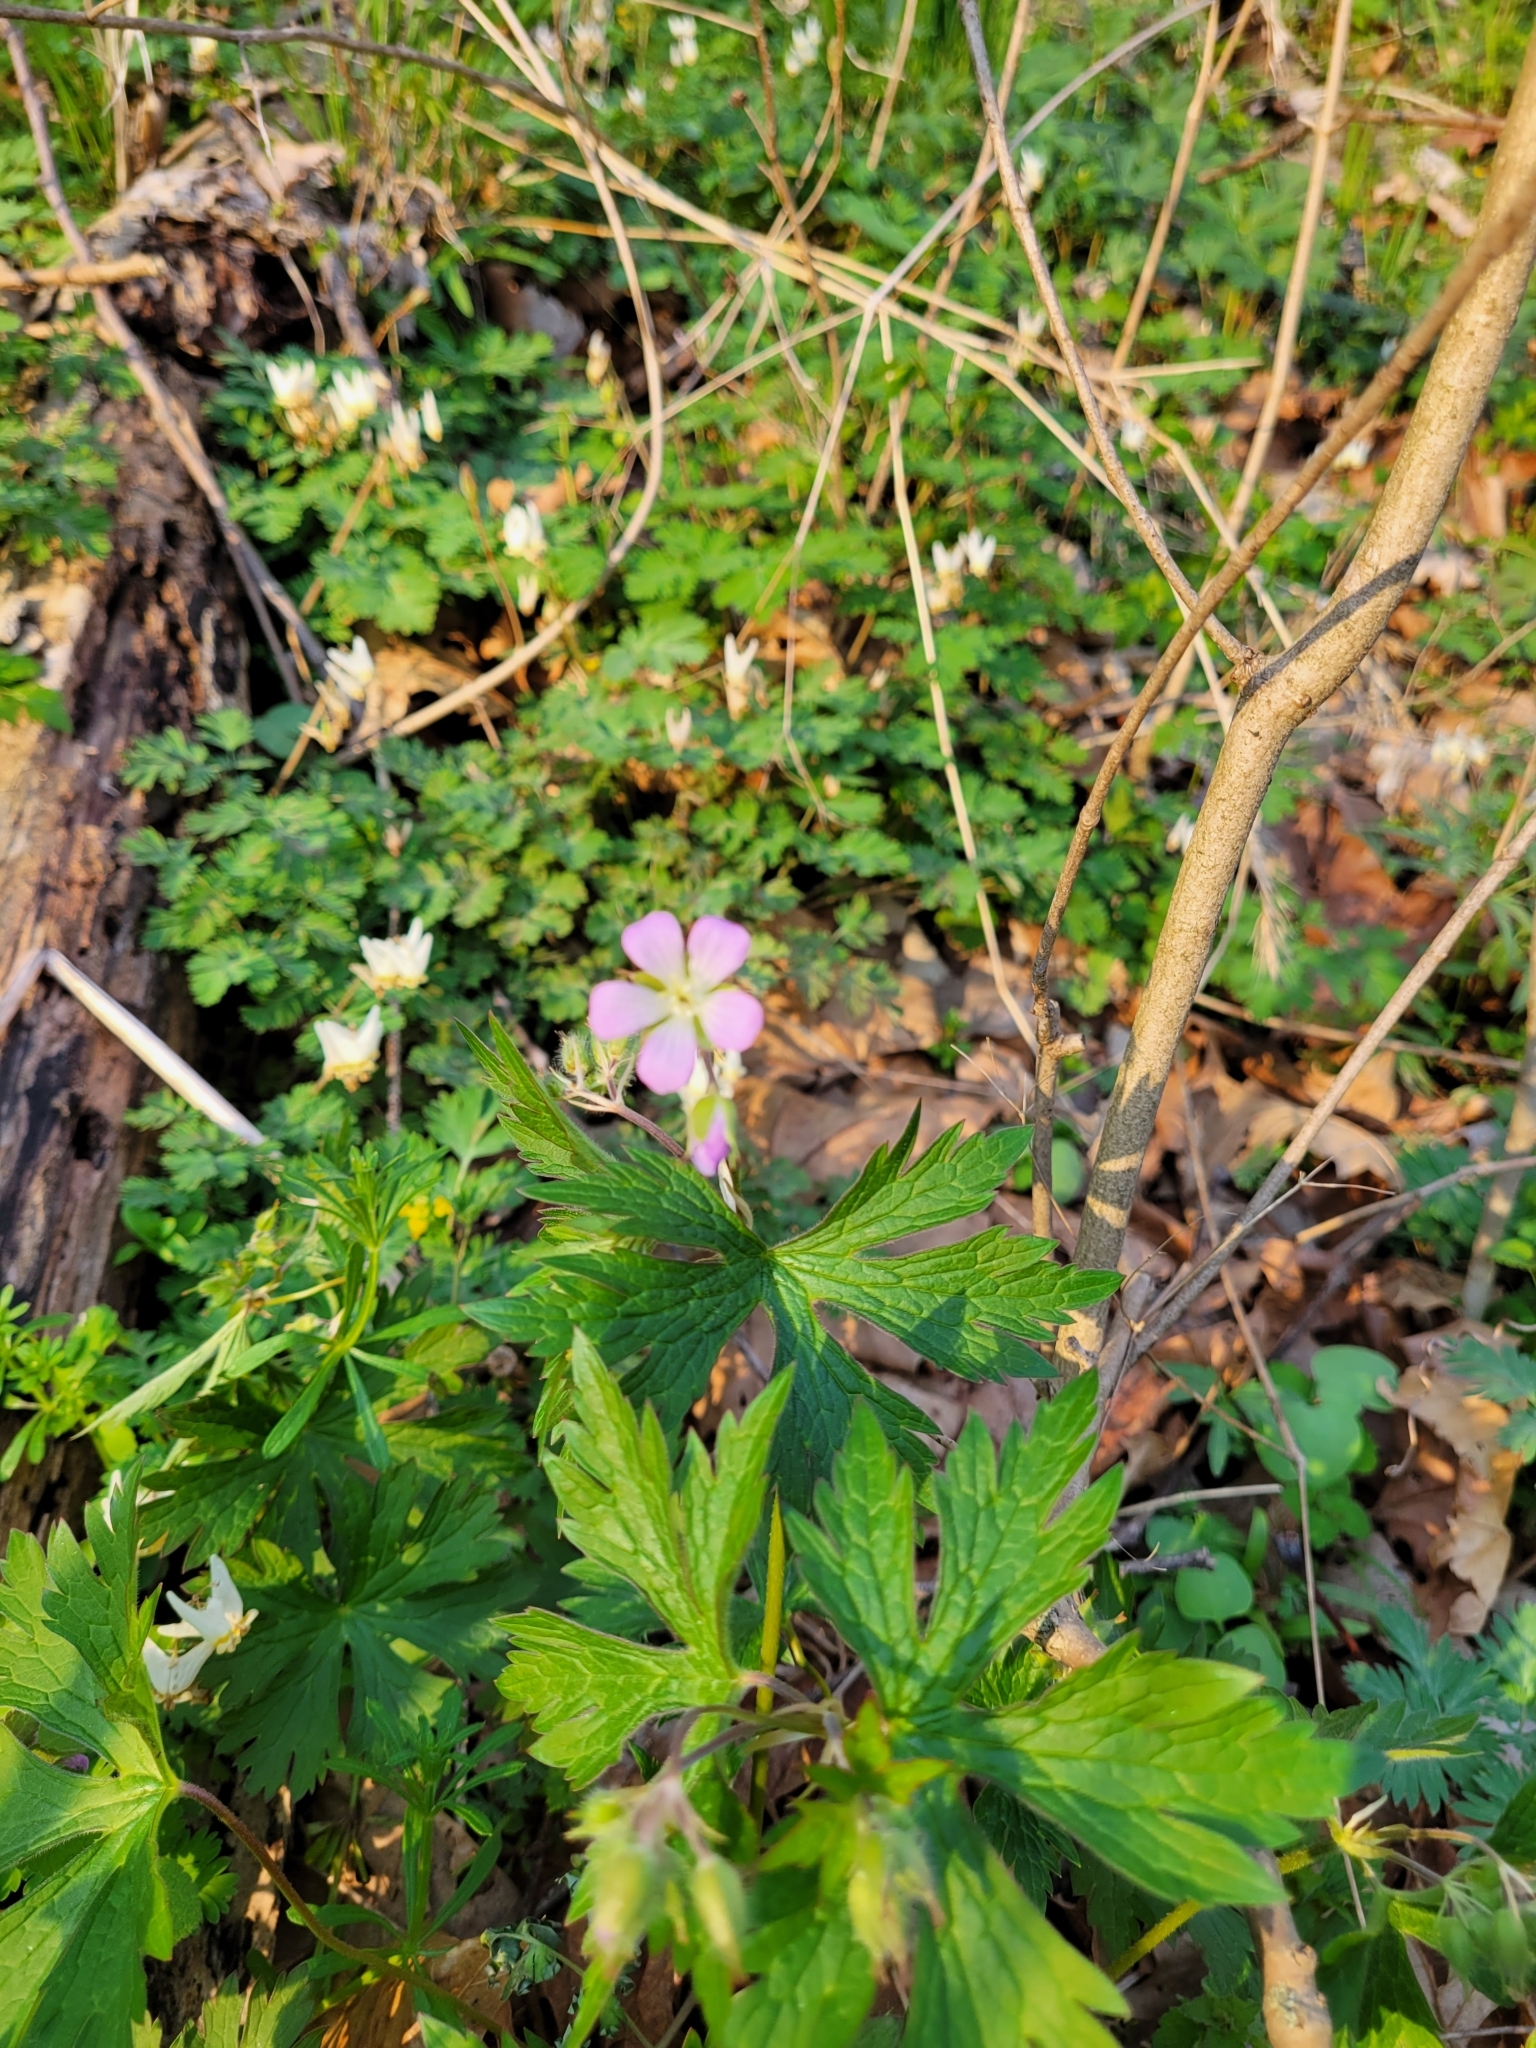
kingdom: Plantae
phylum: Tracheophyta
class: Magnoliopsida
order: Geraniales
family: Geraniaceae
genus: Geranium
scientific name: Geranium maculatum
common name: Spotted geranium
